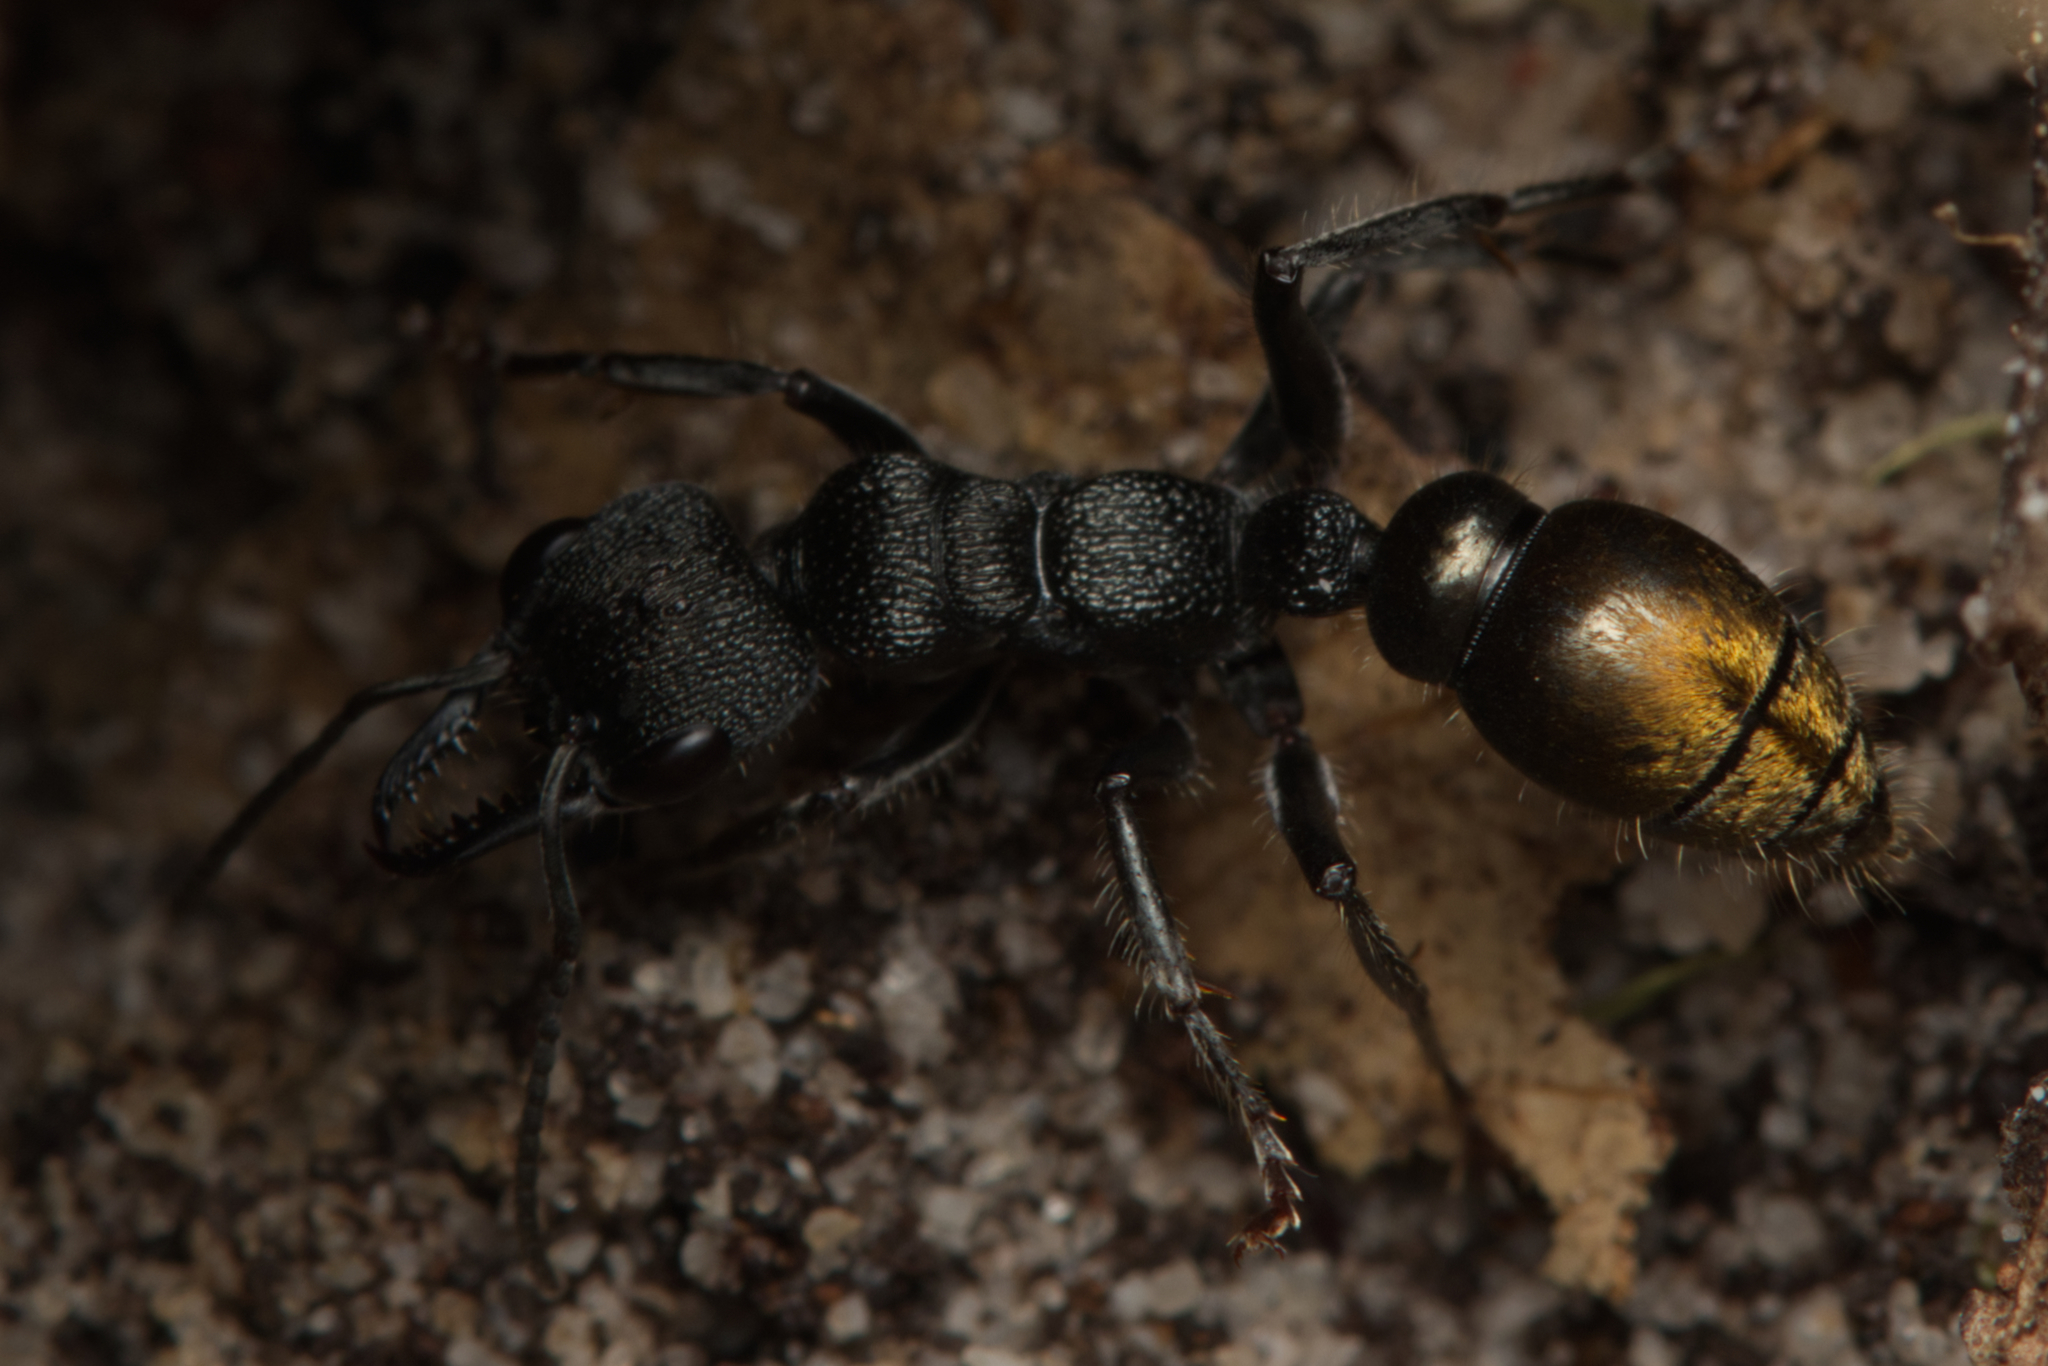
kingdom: Animalia
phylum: Arthropoda
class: Insecta
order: Hymenoptera
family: Formicidae
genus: Myrmecia
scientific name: Myrmecia queenslandica
